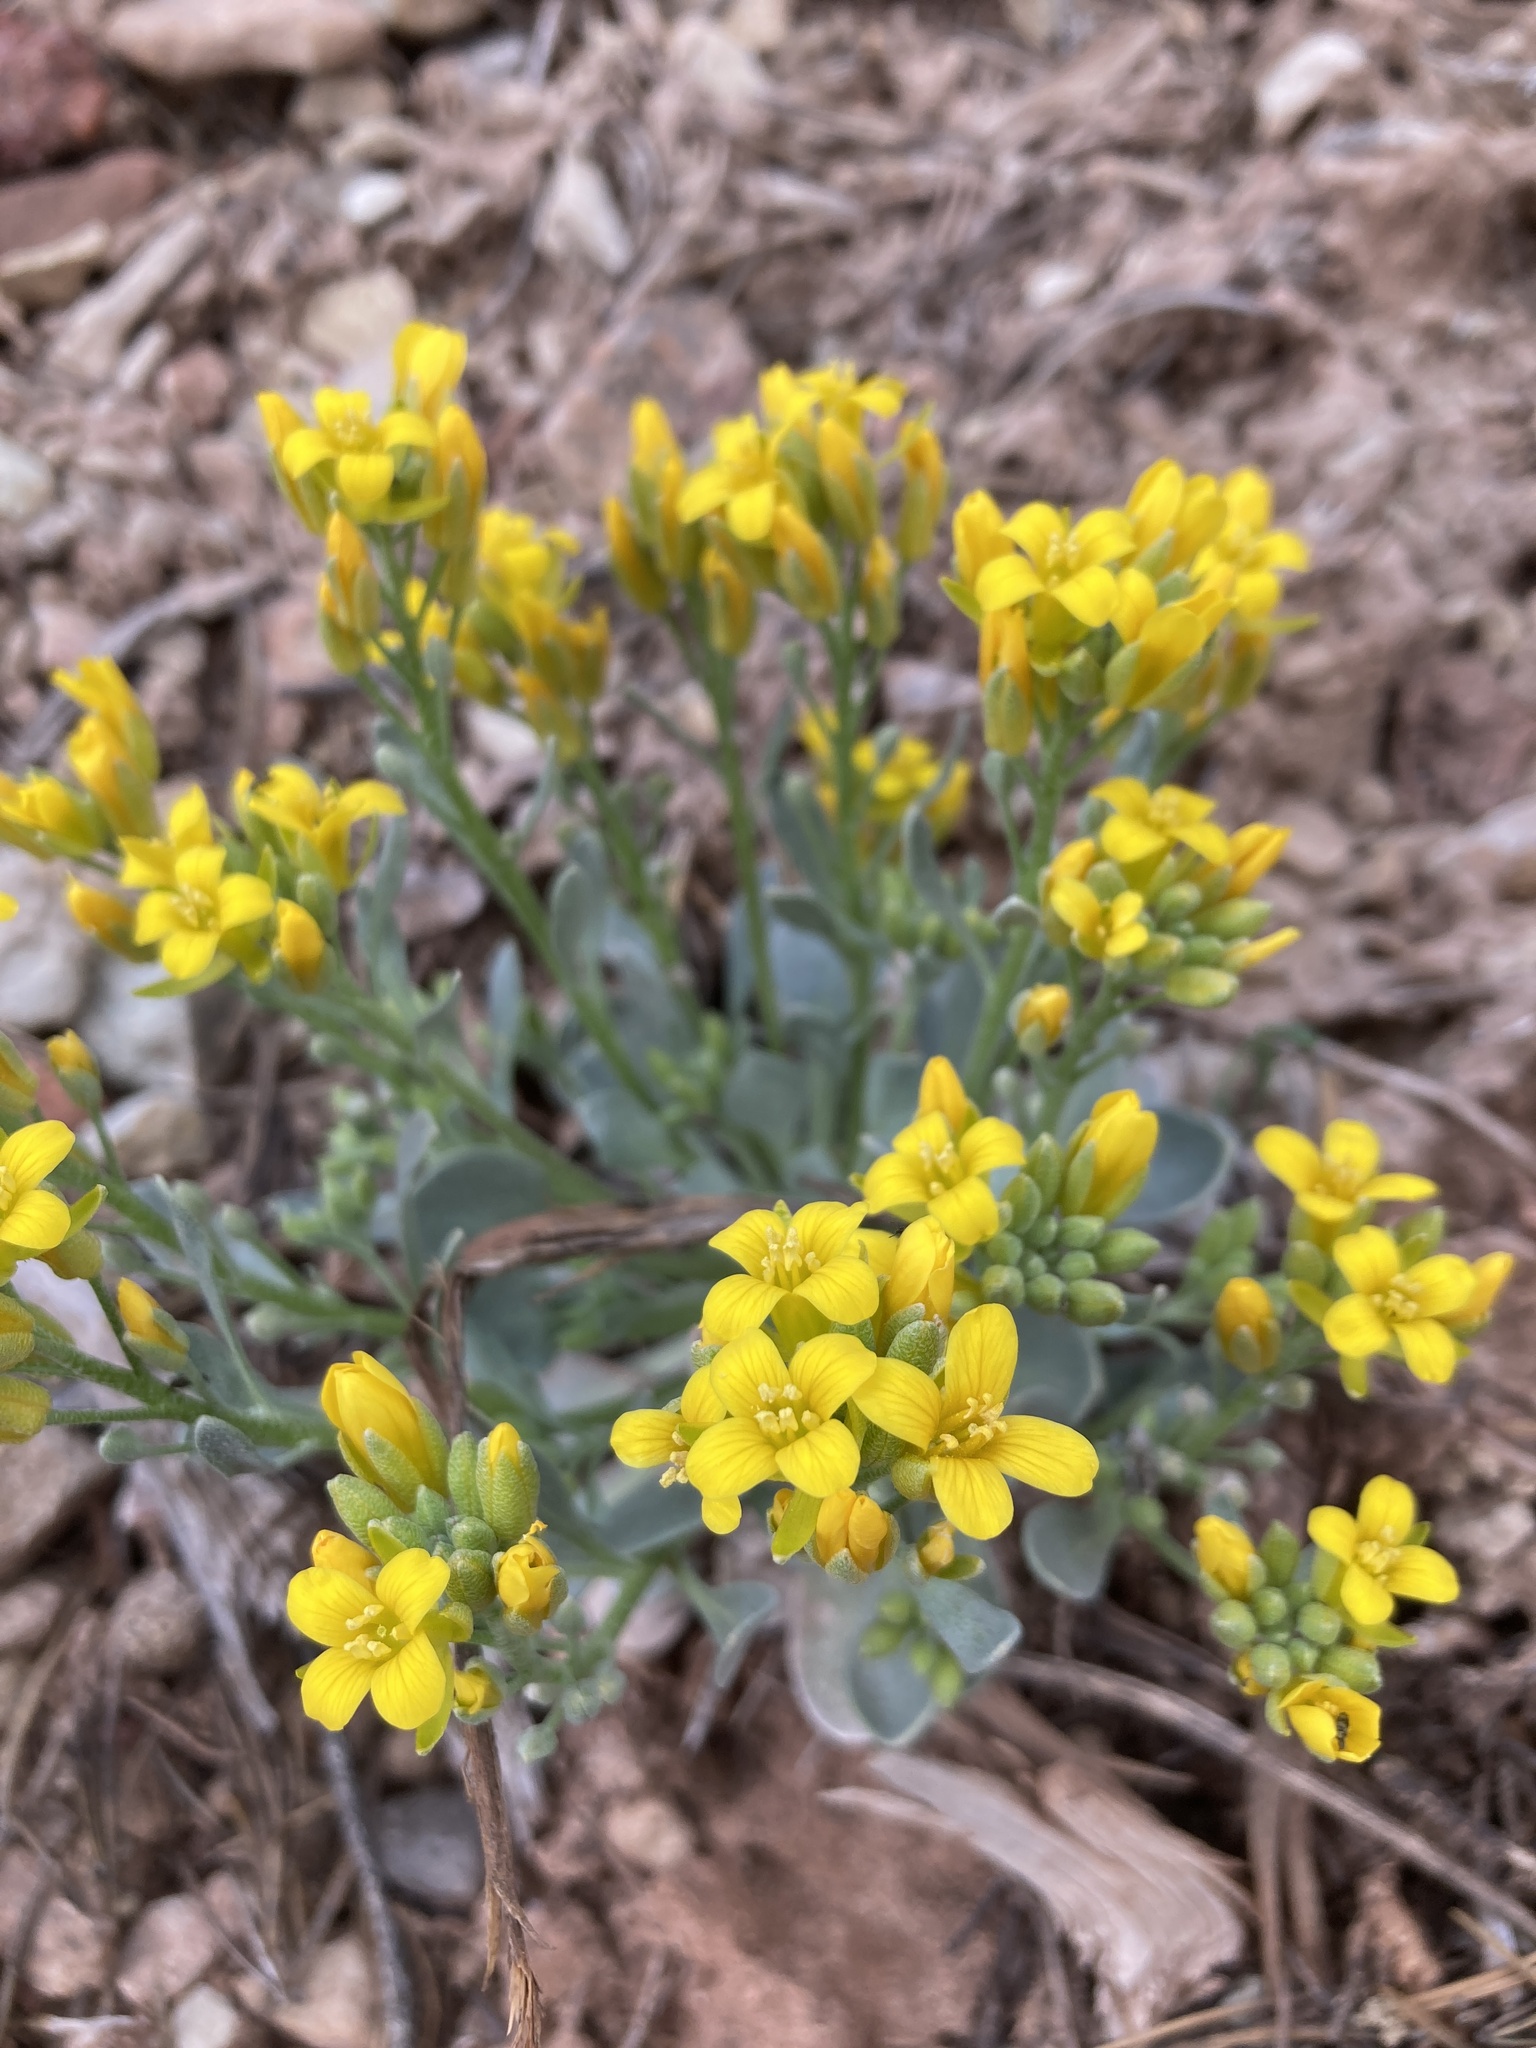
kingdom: Plantae
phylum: Tracheophyta
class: Magnoliopsida
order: Brassicales
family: Brassicaceae
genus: Physaria
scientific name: Physaria acutifolia
